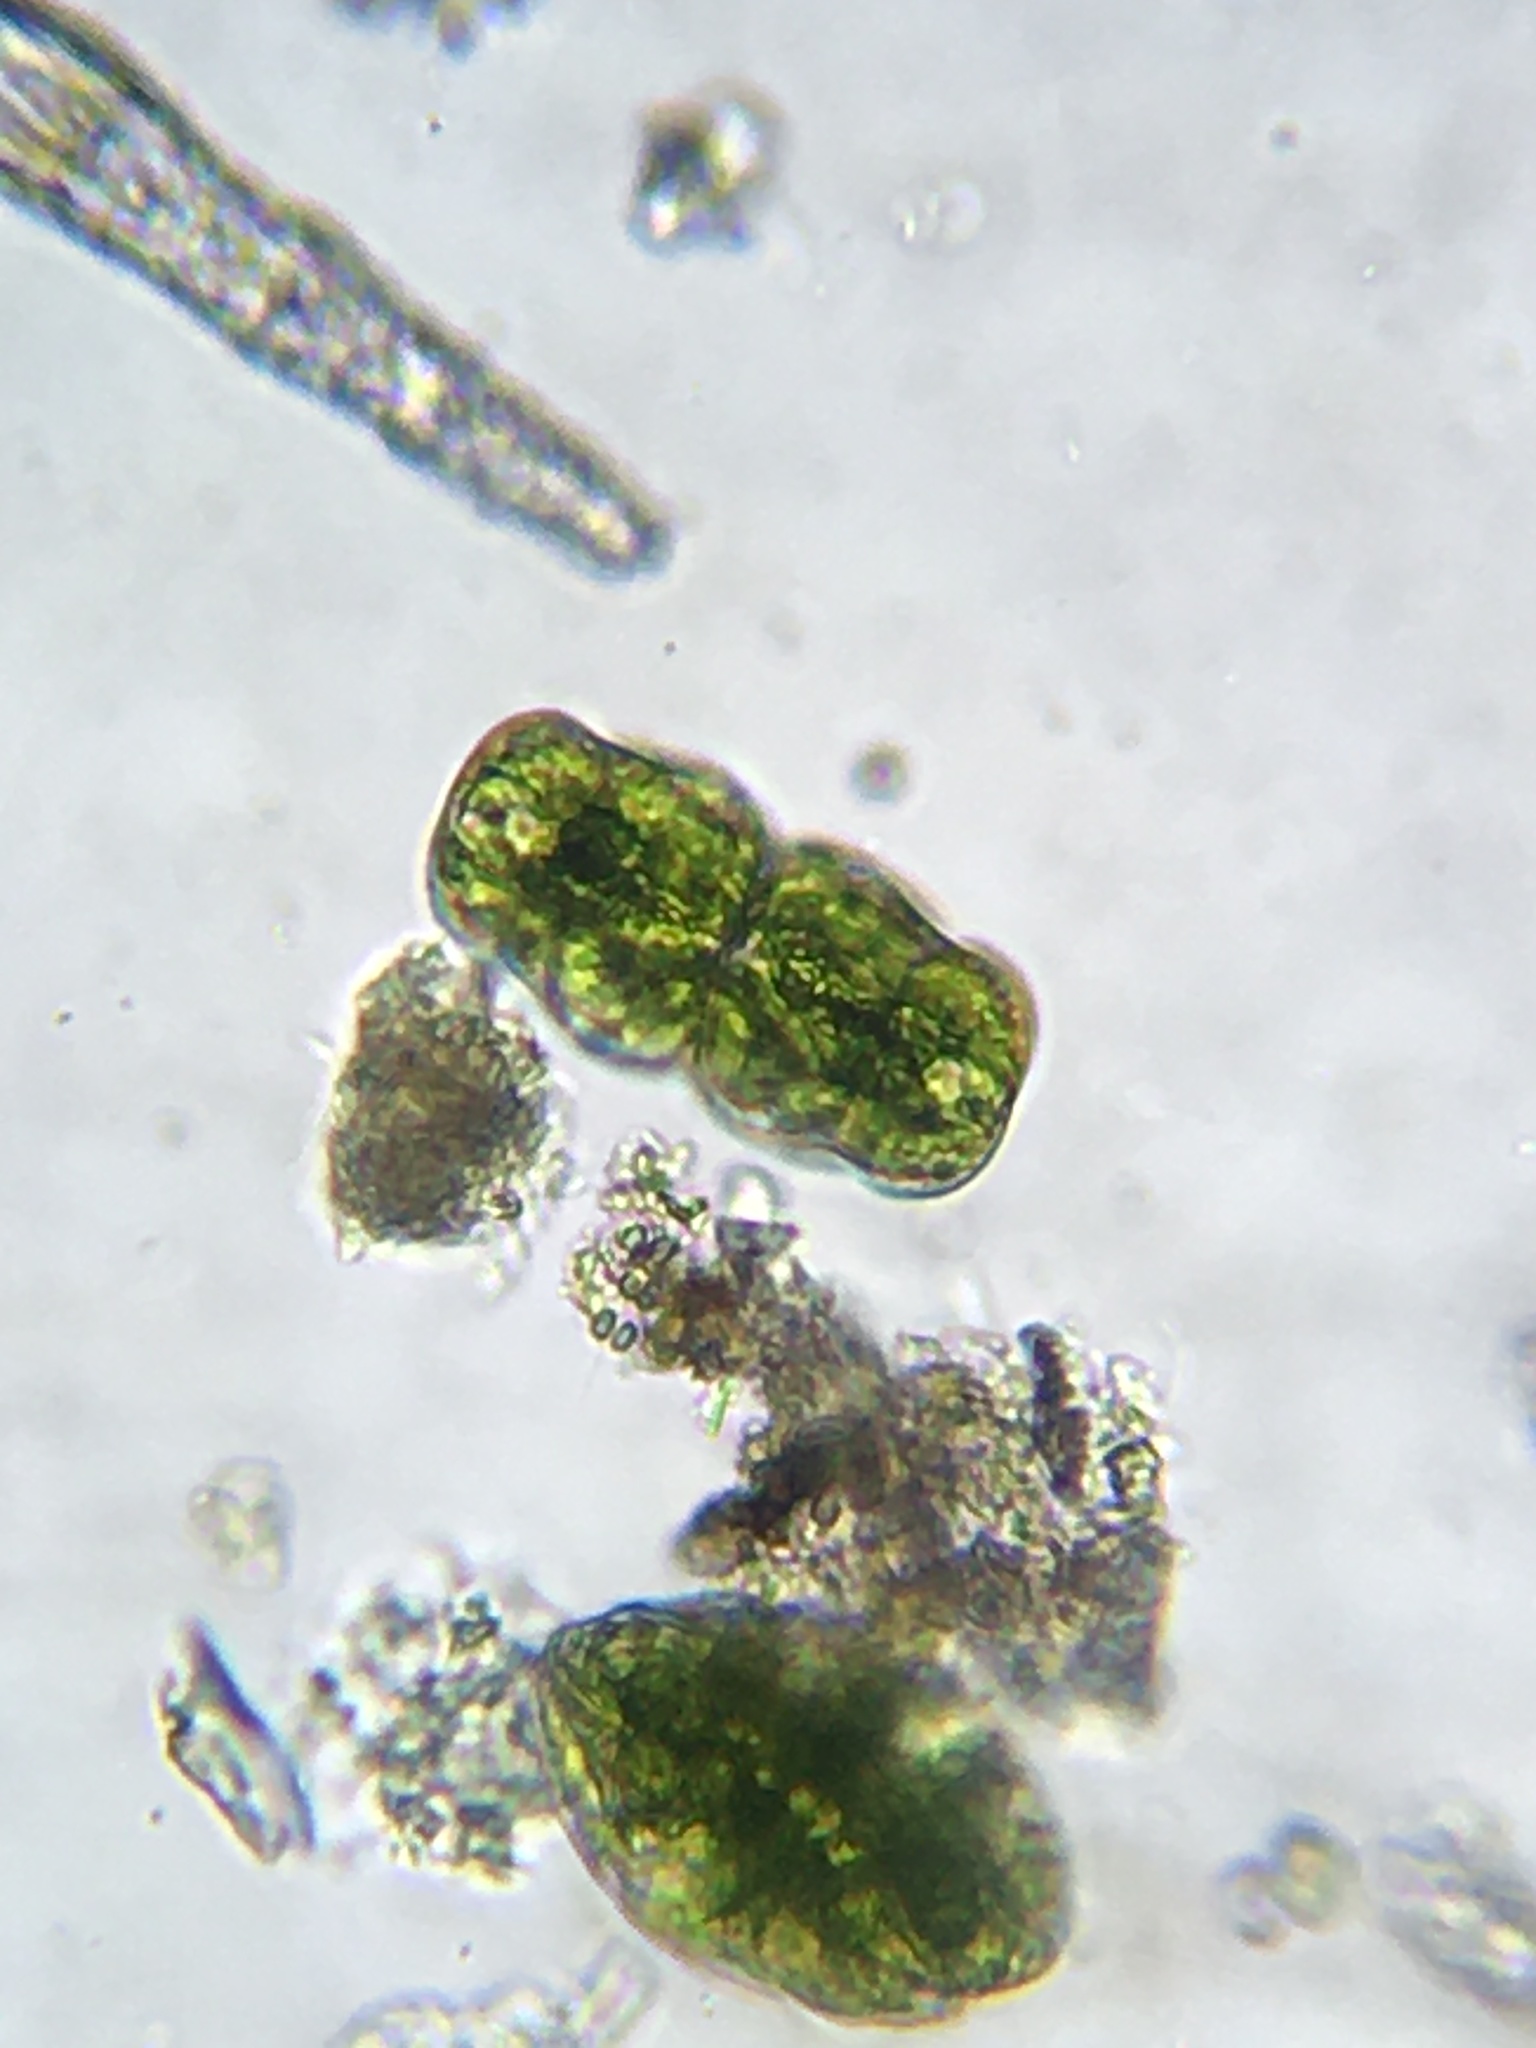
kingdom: Plantae
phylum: Charophyta
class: Conjugatophyceae
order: Desmidiales
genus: Micrasterias
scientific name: Micrasterias truncata
